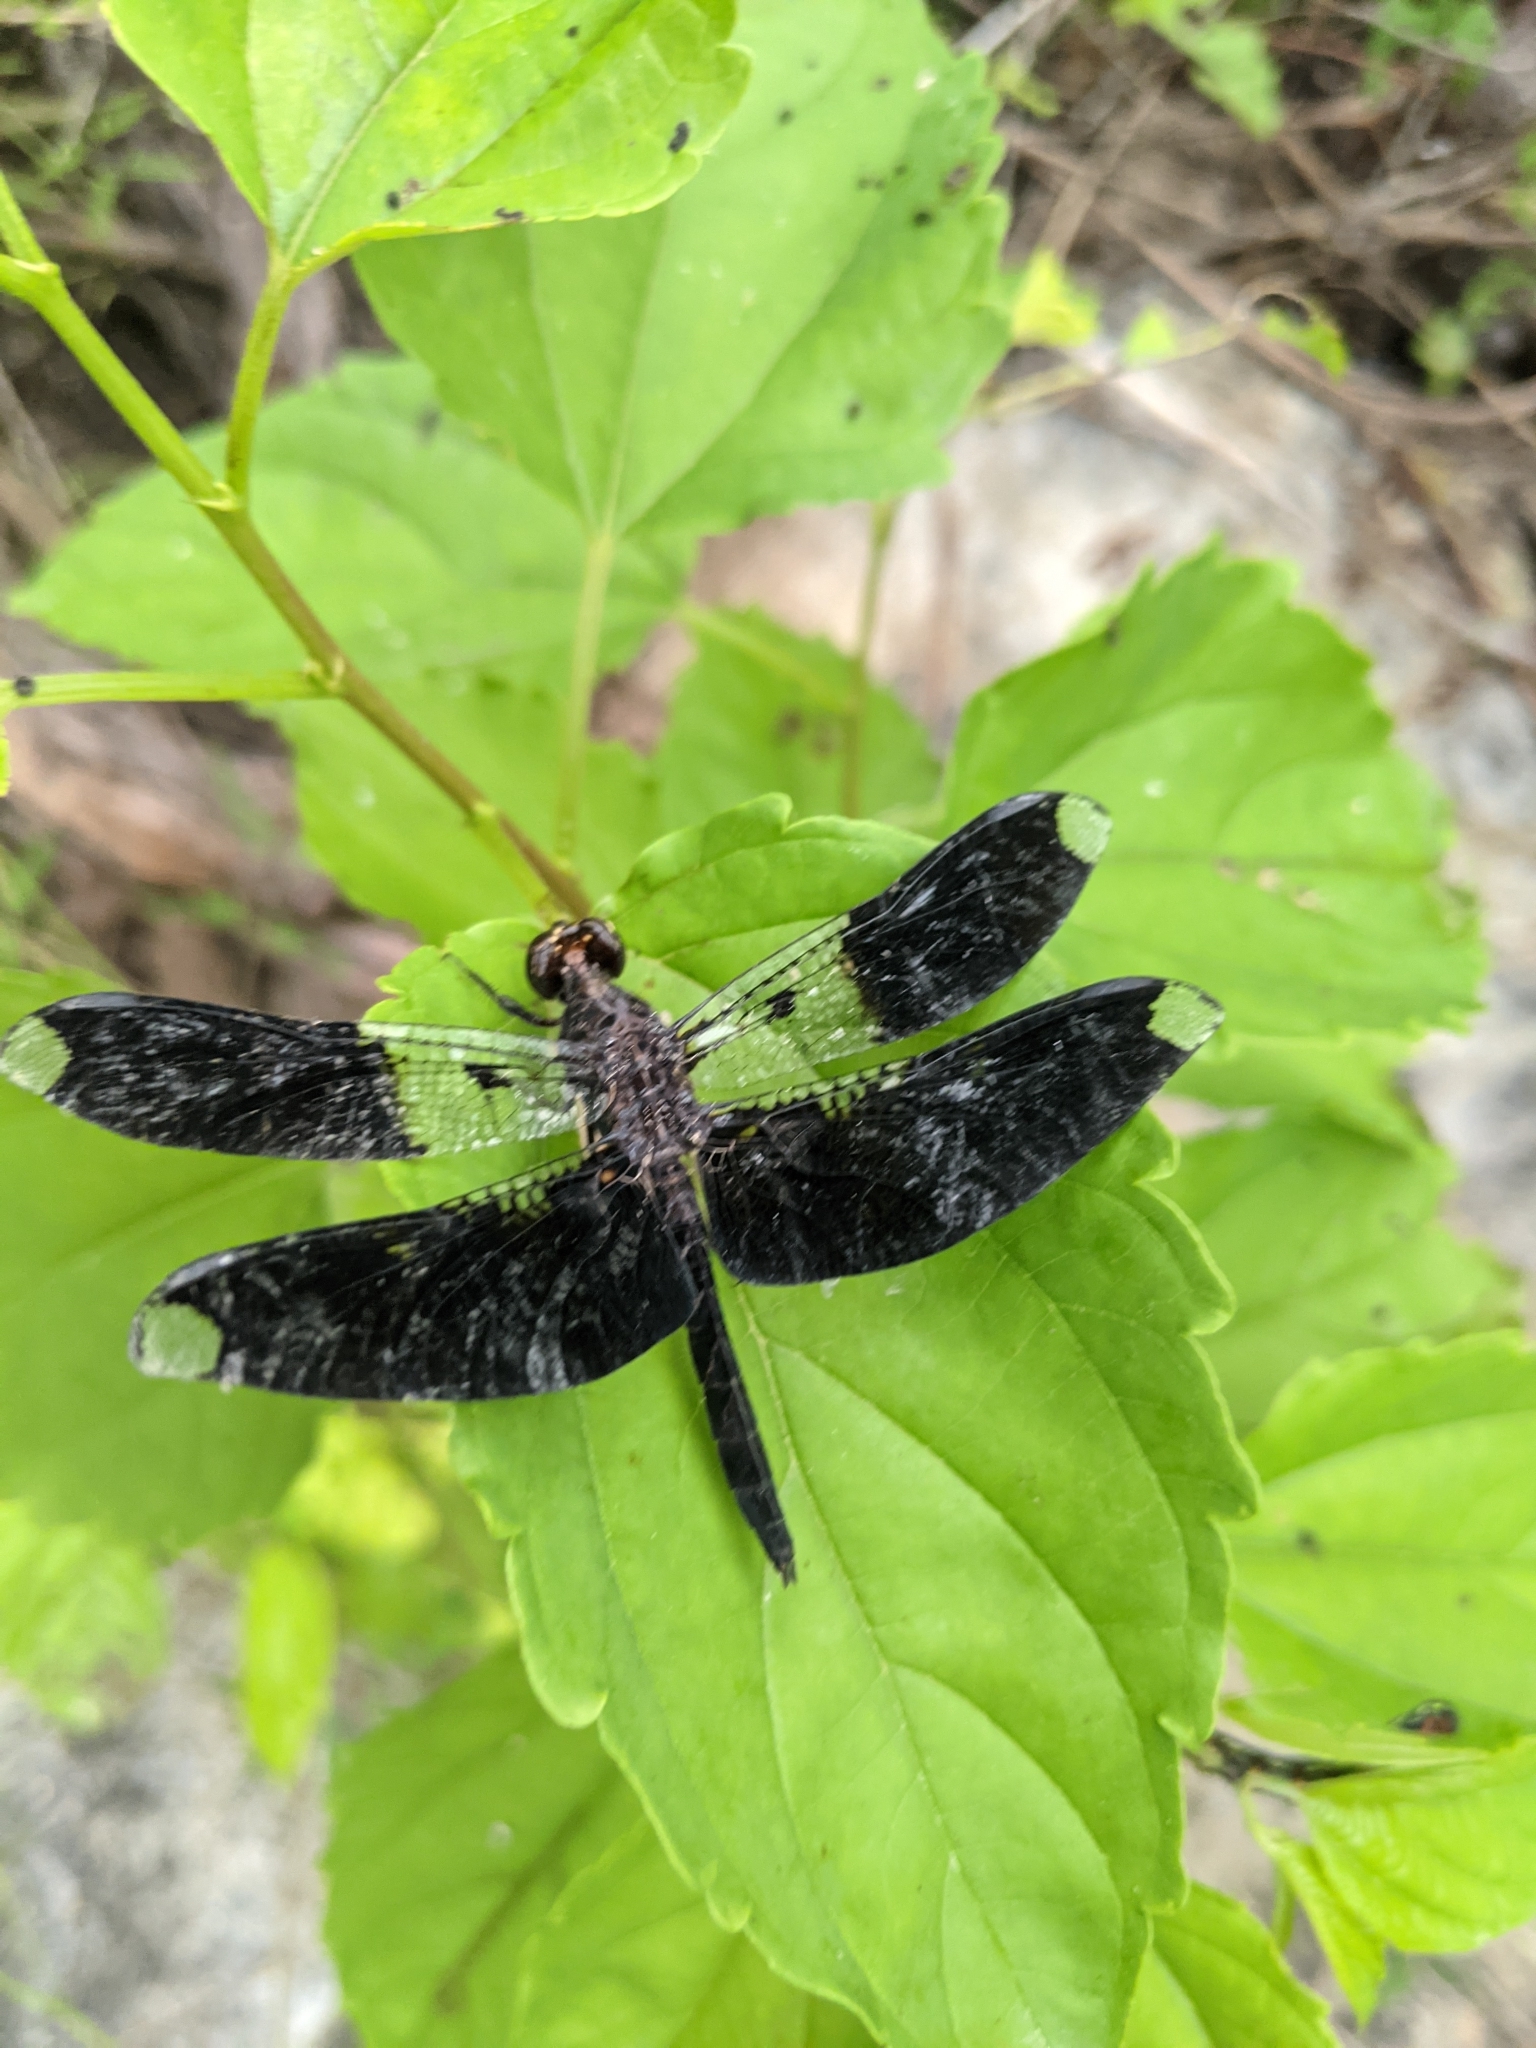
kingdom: Animalia
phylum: Arthropoda
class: Insecta
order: Odonata
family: Libellulidae
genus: Pseudoleon
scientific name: Pseudoleon superbus
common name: Filigree skimmer
